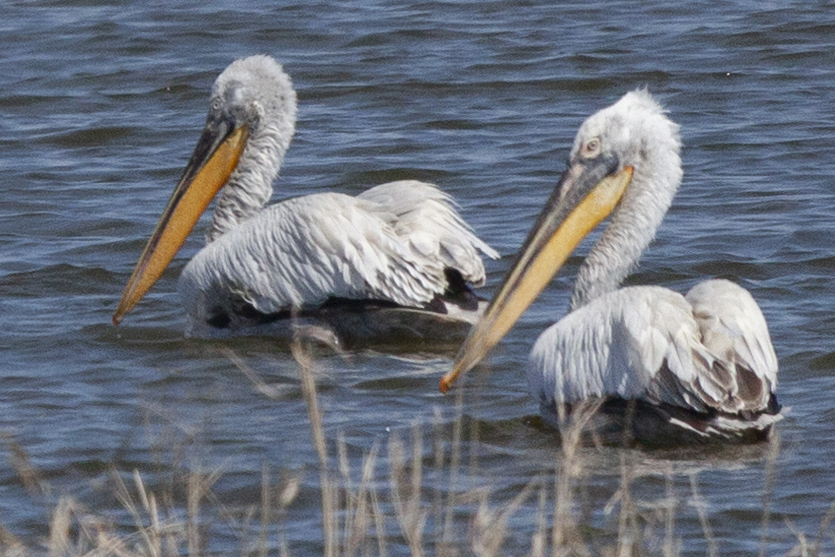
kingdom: Animalia
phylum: Chordata
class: Aves
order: Pelecaniformes
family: Pelecanidae
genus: Pelecanus
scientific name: Pelecanus crispus
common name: Dalmatian pelican
